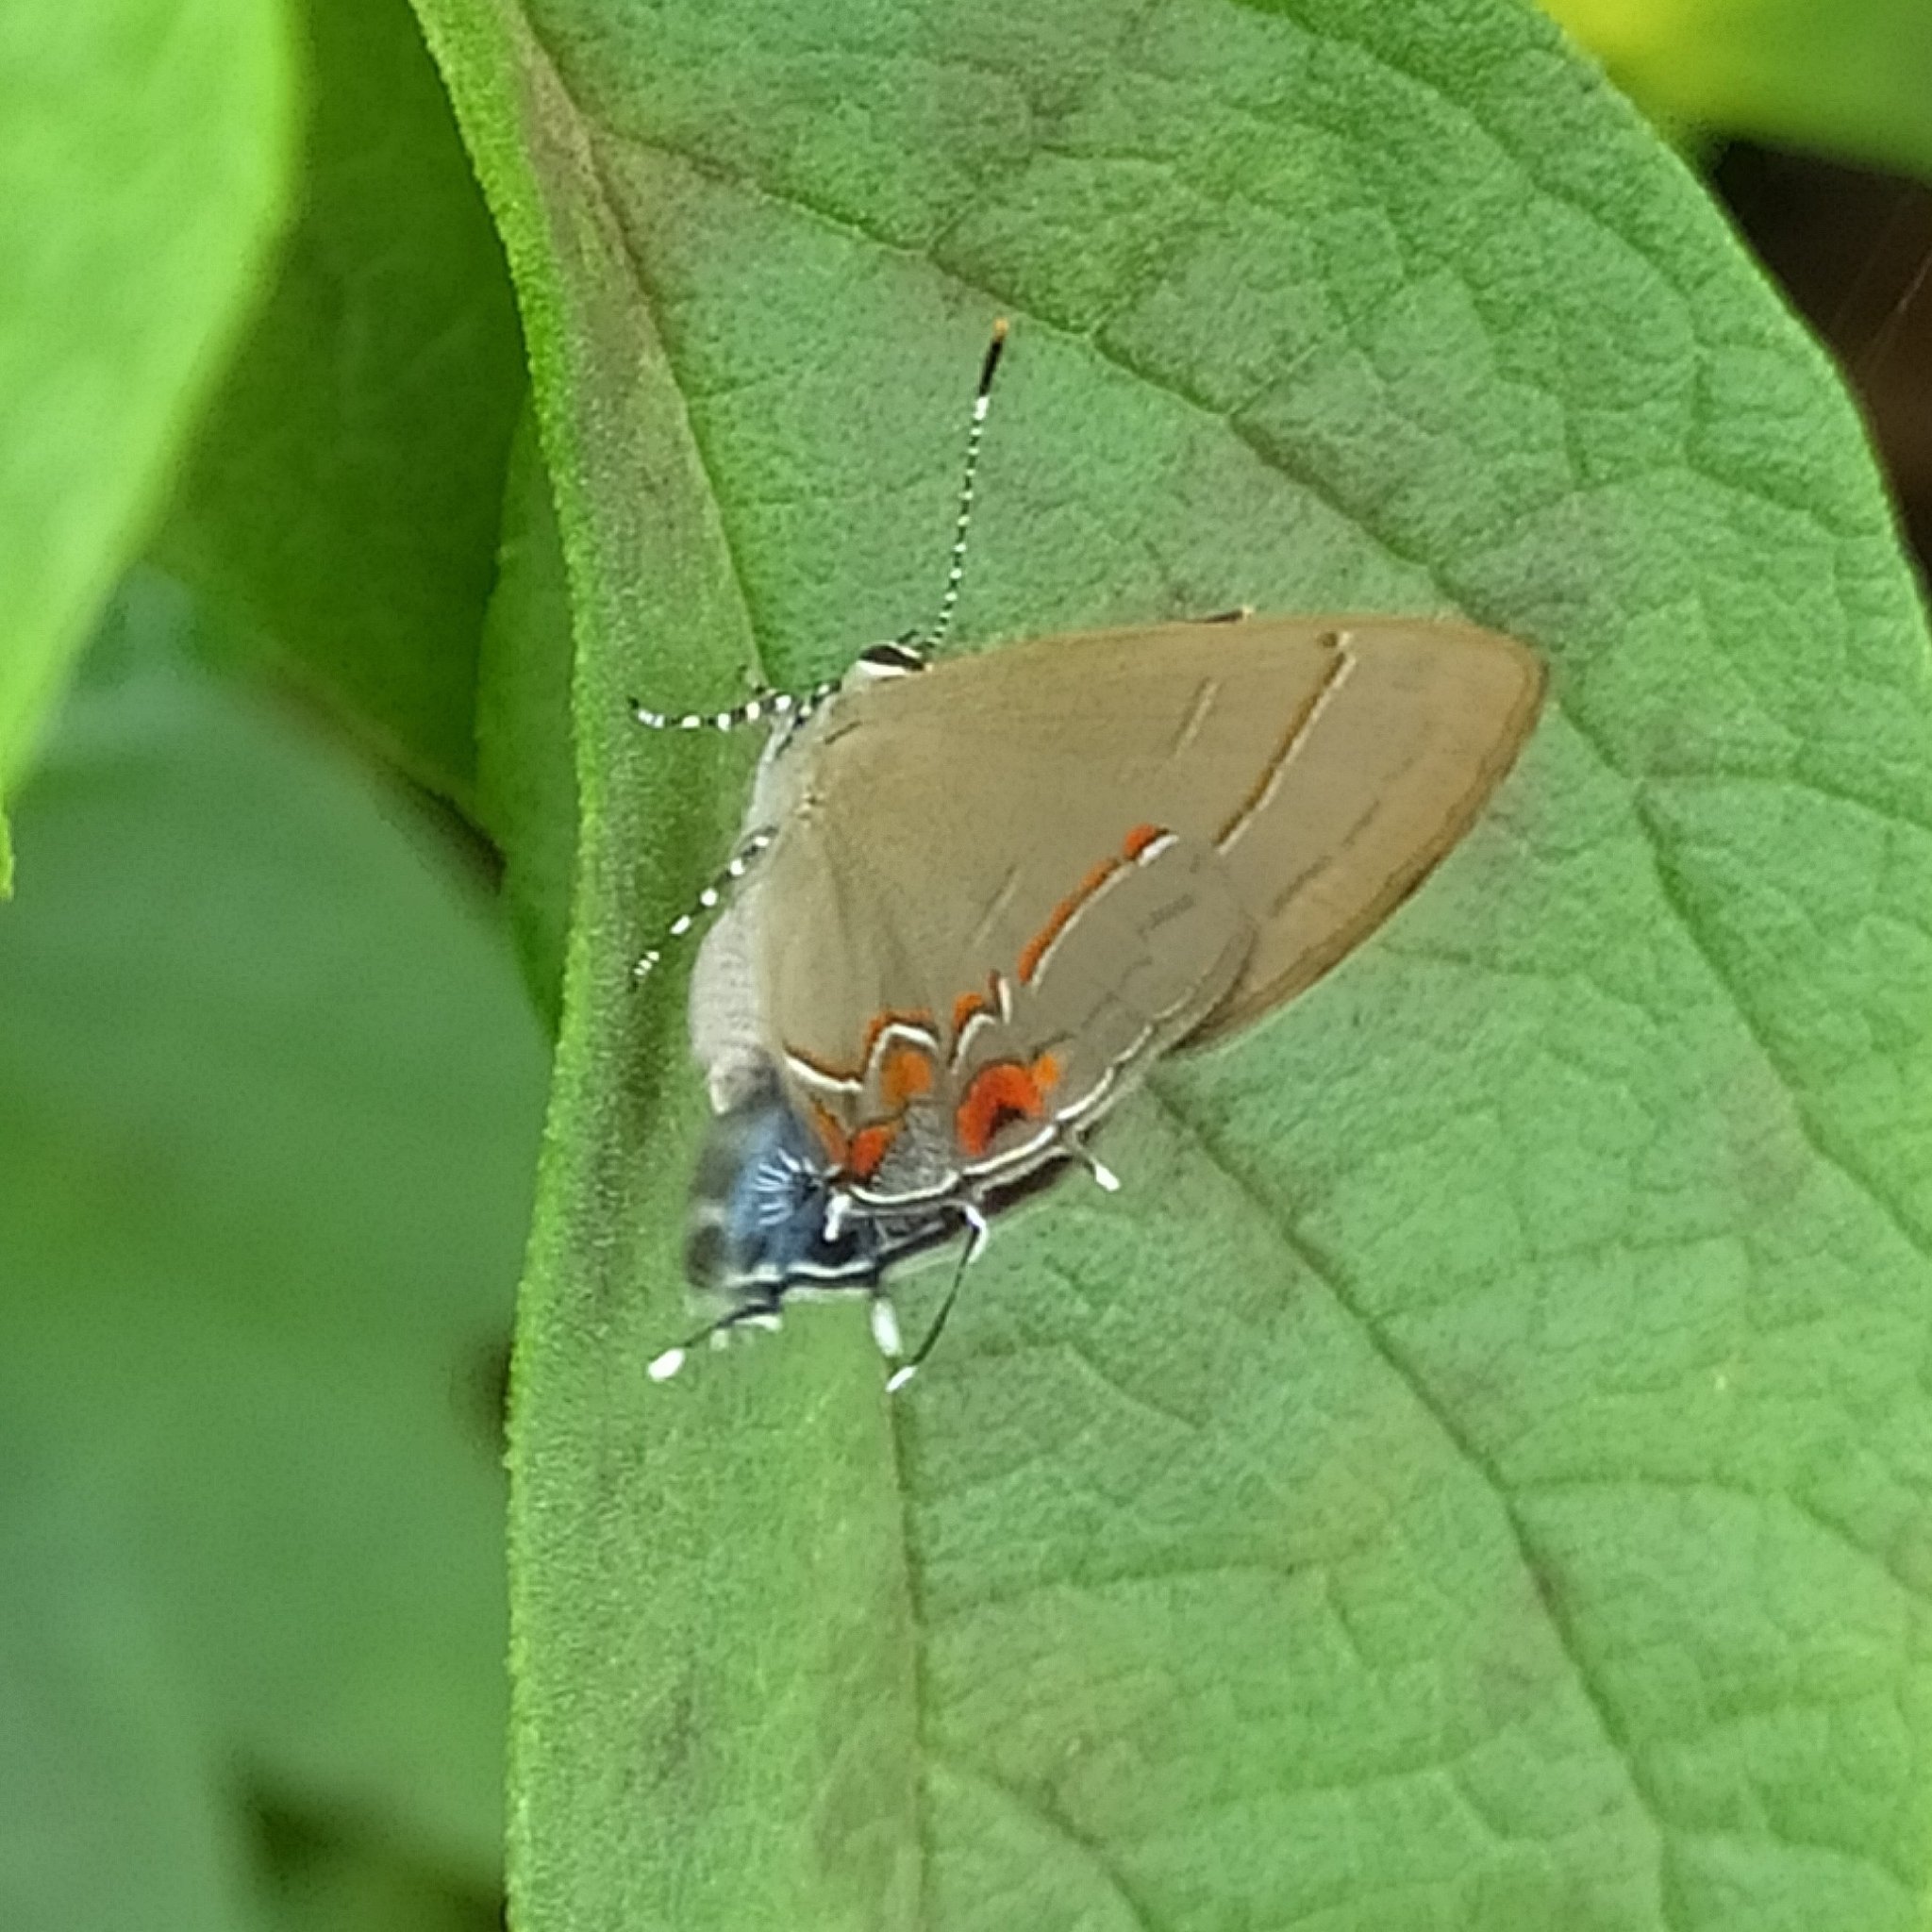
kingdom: Animalia
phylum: Arthropoda
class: Insecta
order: Lepidoptera
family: Lycaenidae
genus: Calycopis
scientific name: Calycopis
